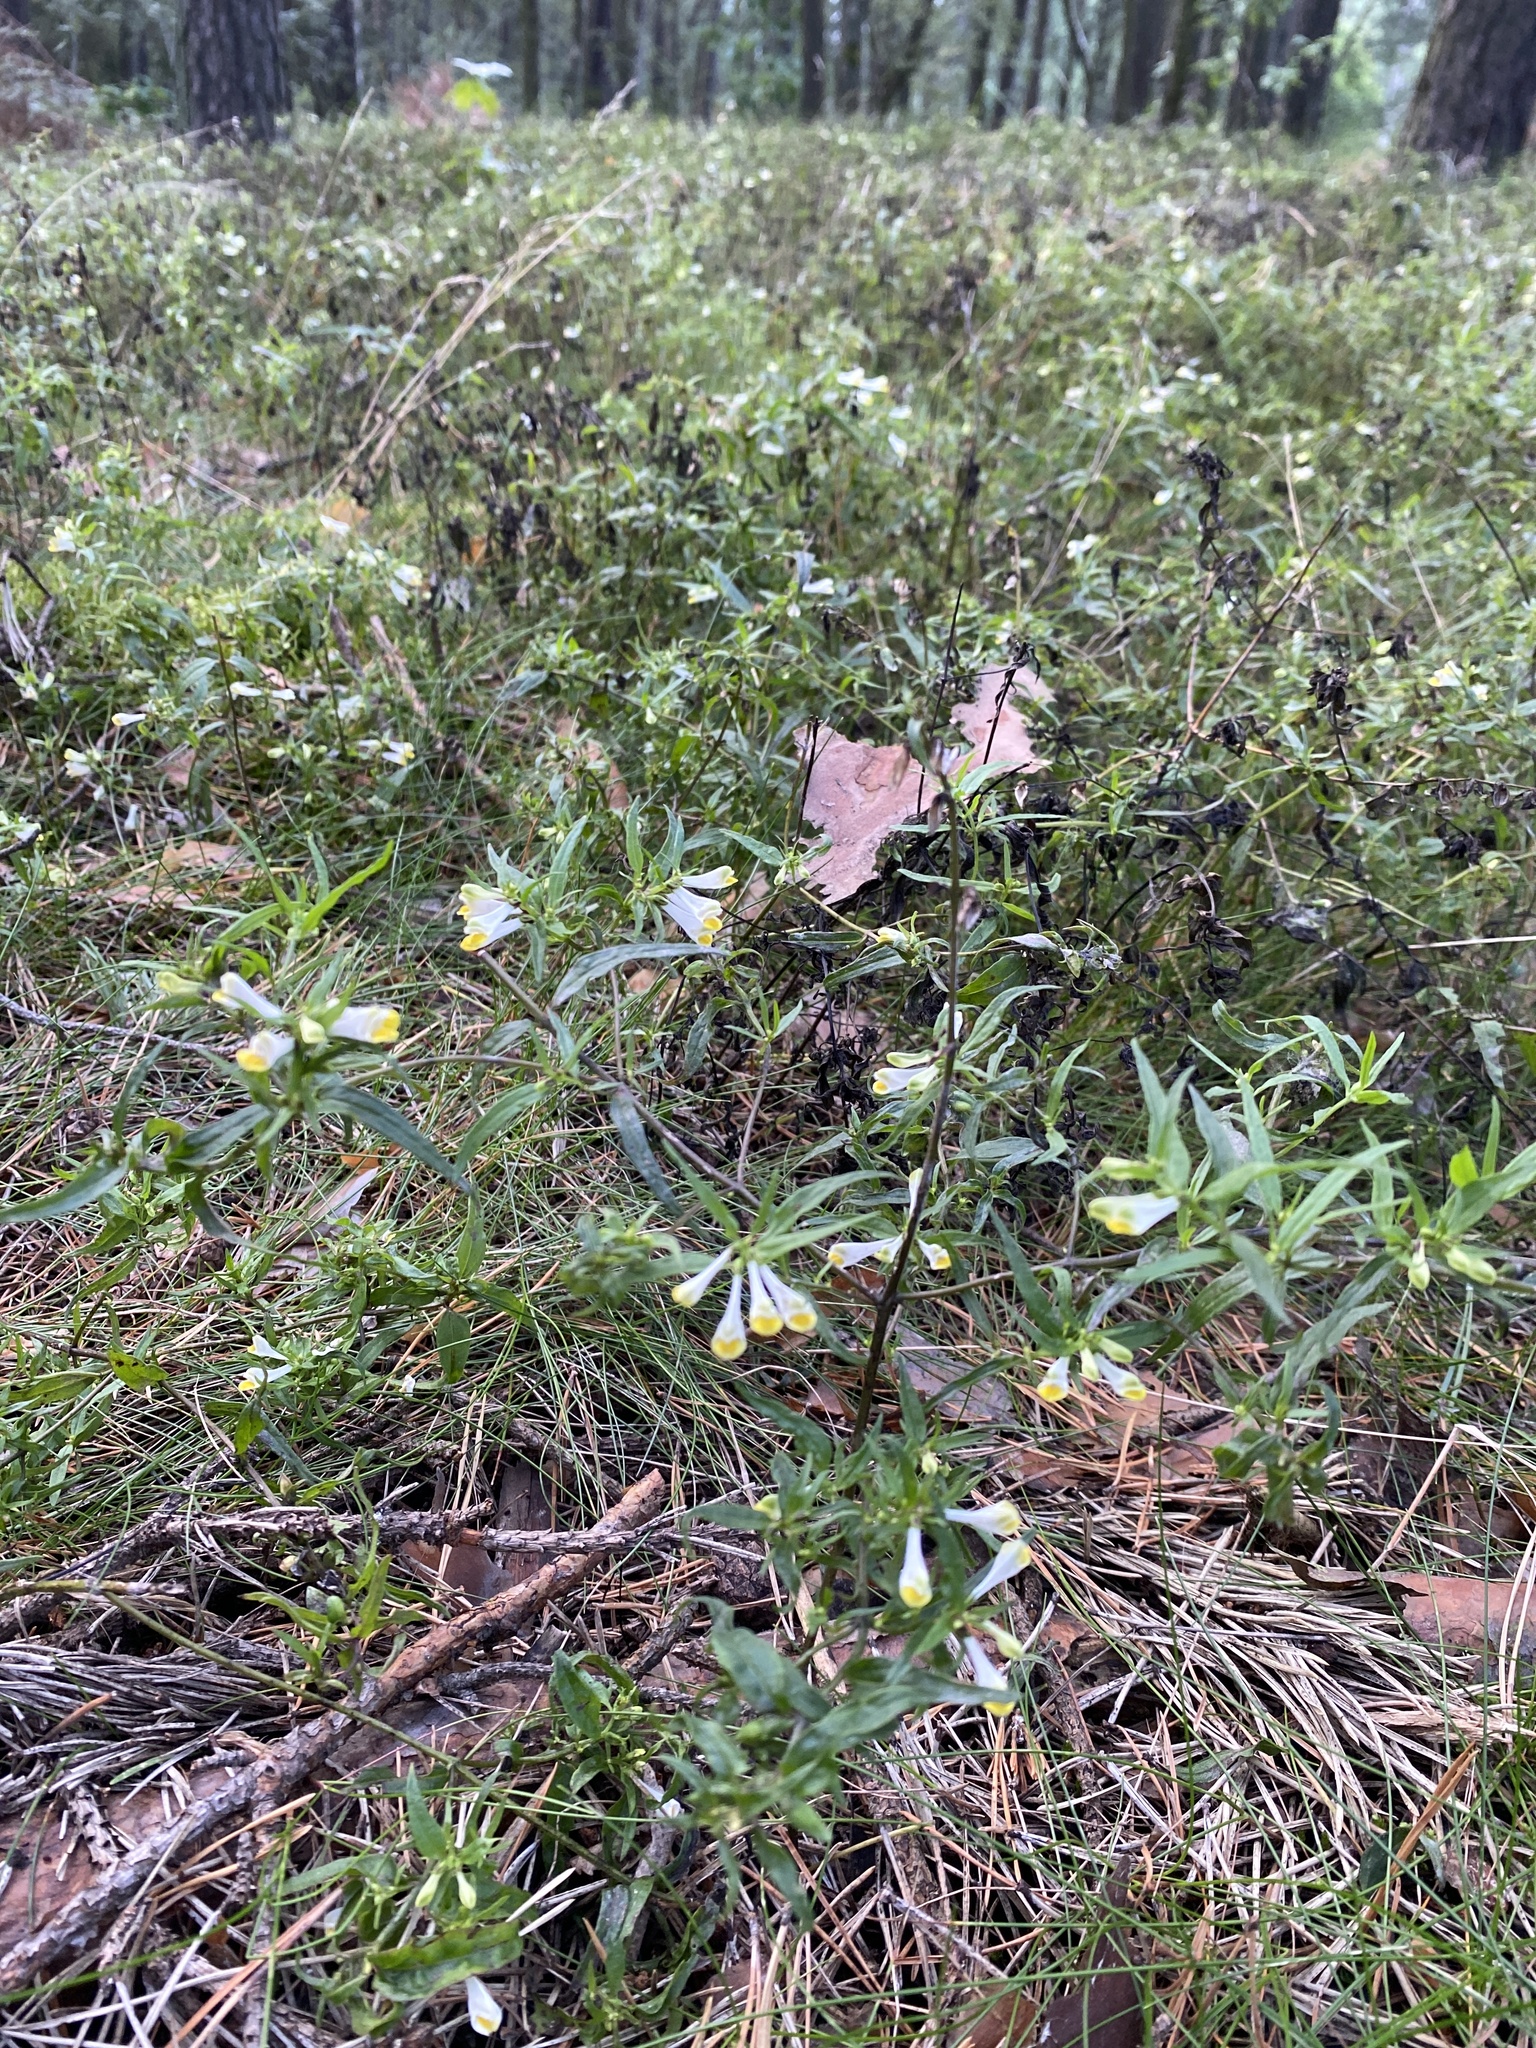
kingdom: Plantae
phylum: Tracheophyta
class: Magnoliopsida
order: Lamiales
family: Orobanchaceae
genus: Melampyrum
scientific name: Melampyrum pratense
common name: Common cow-wheat
